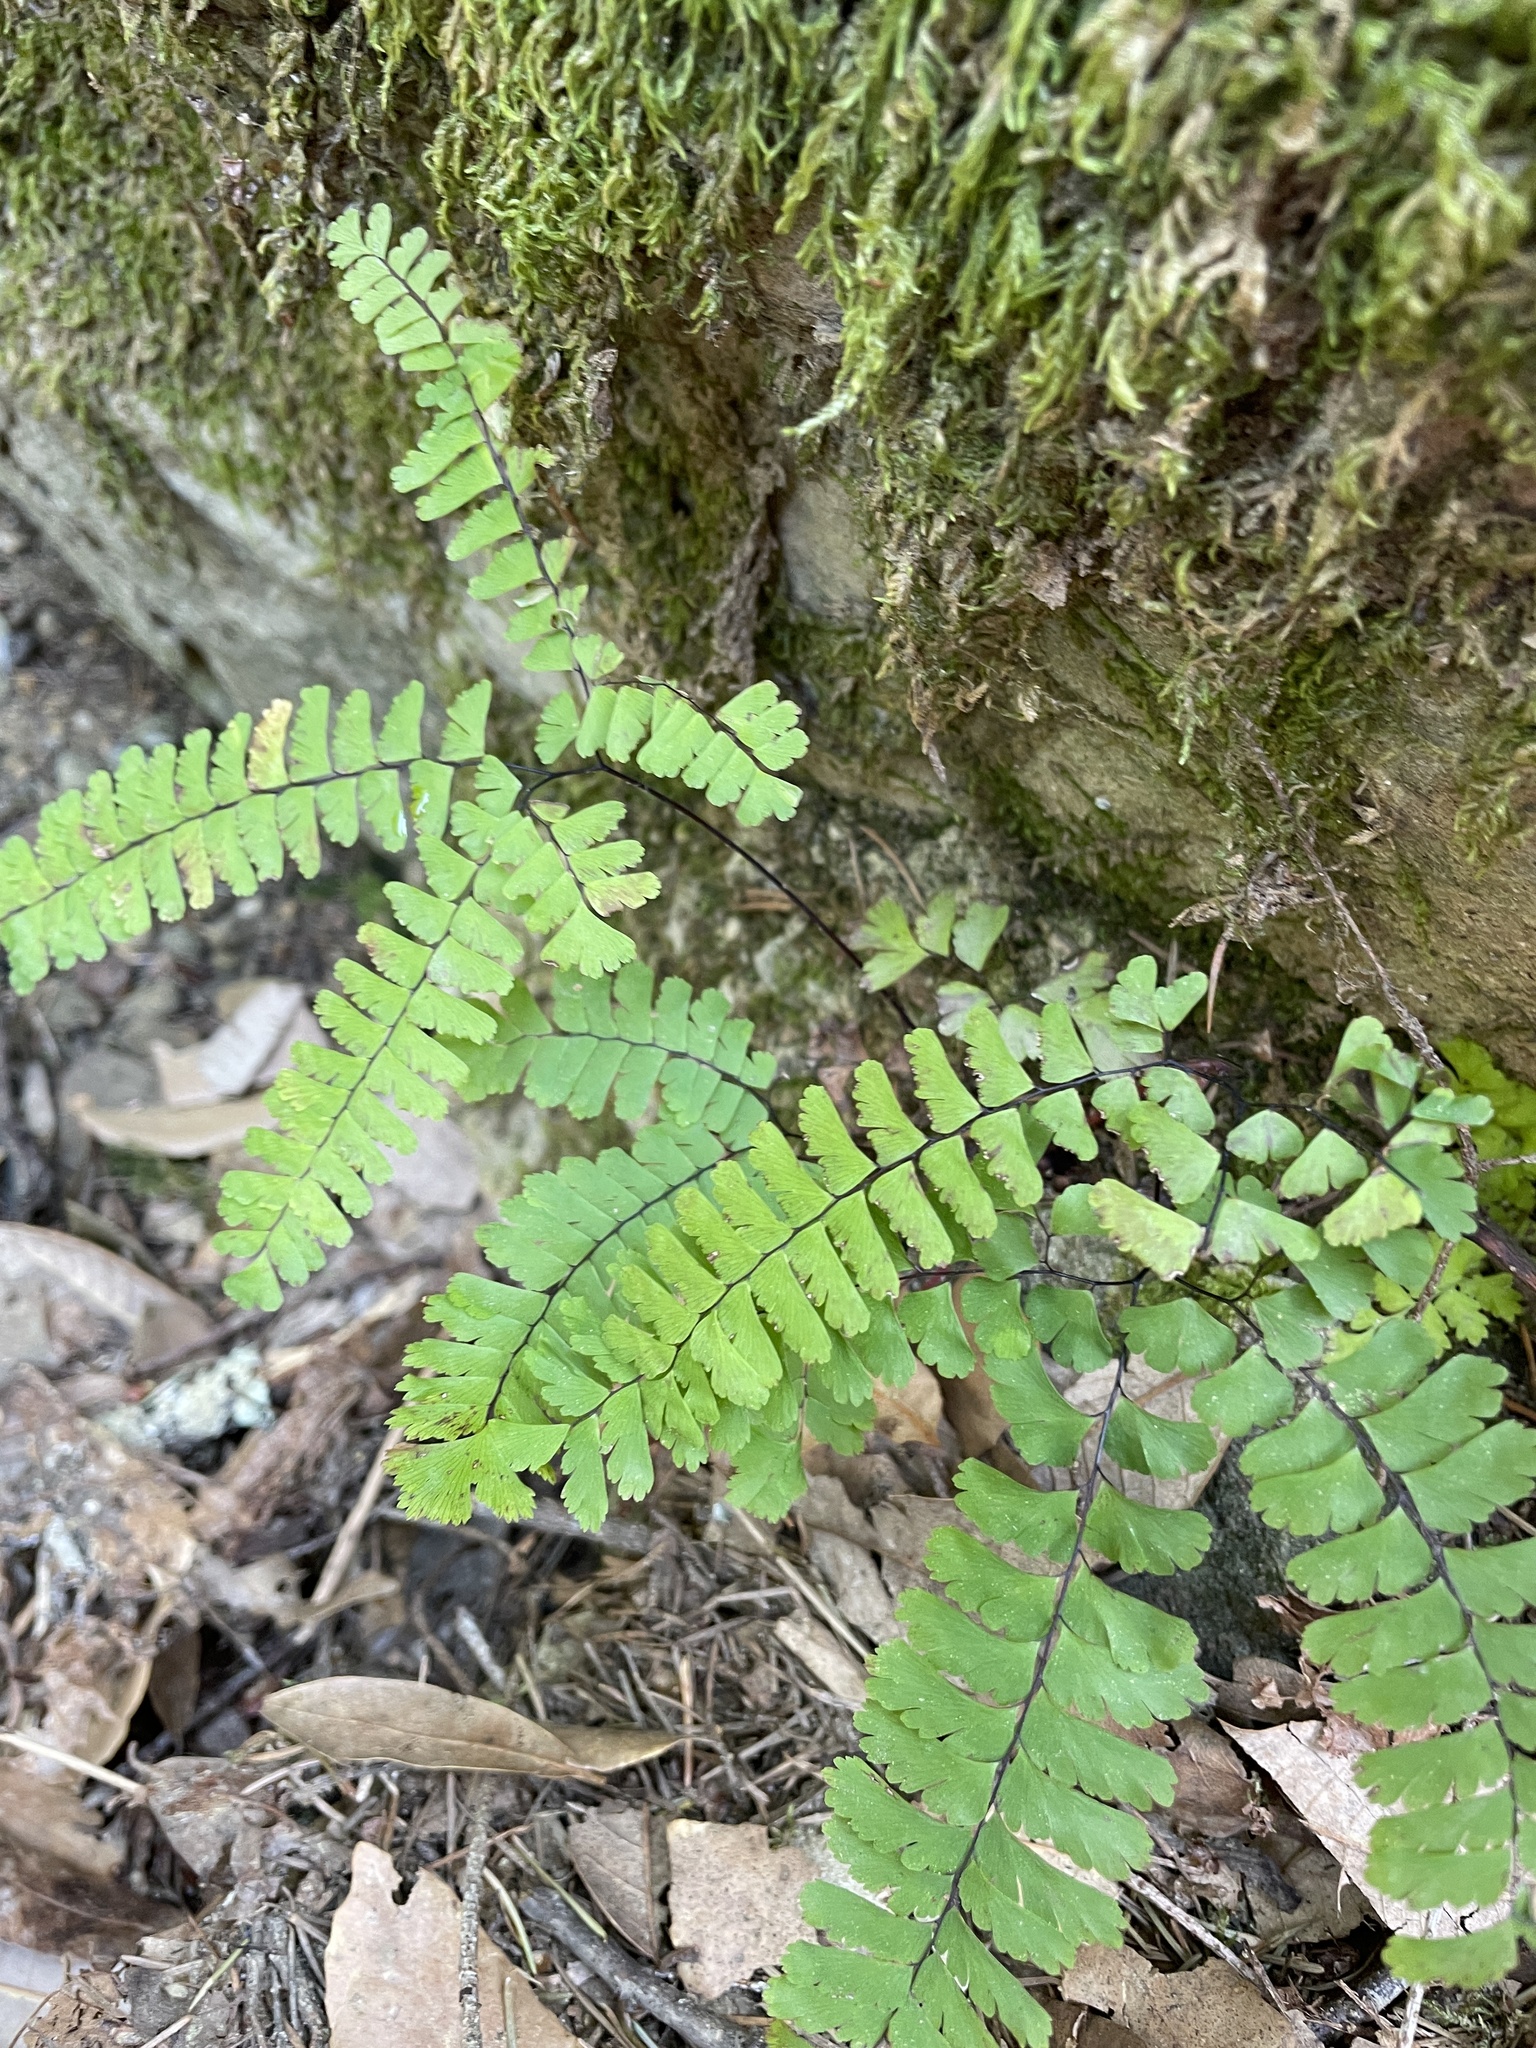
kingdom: Plantae
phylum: Tracheophyta
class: Polypodiopsida
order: Polypodiales
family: Pteridaceae
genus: Adiantum
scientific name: Adiantum aleuticum
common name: Aleutian maidenhair fern
